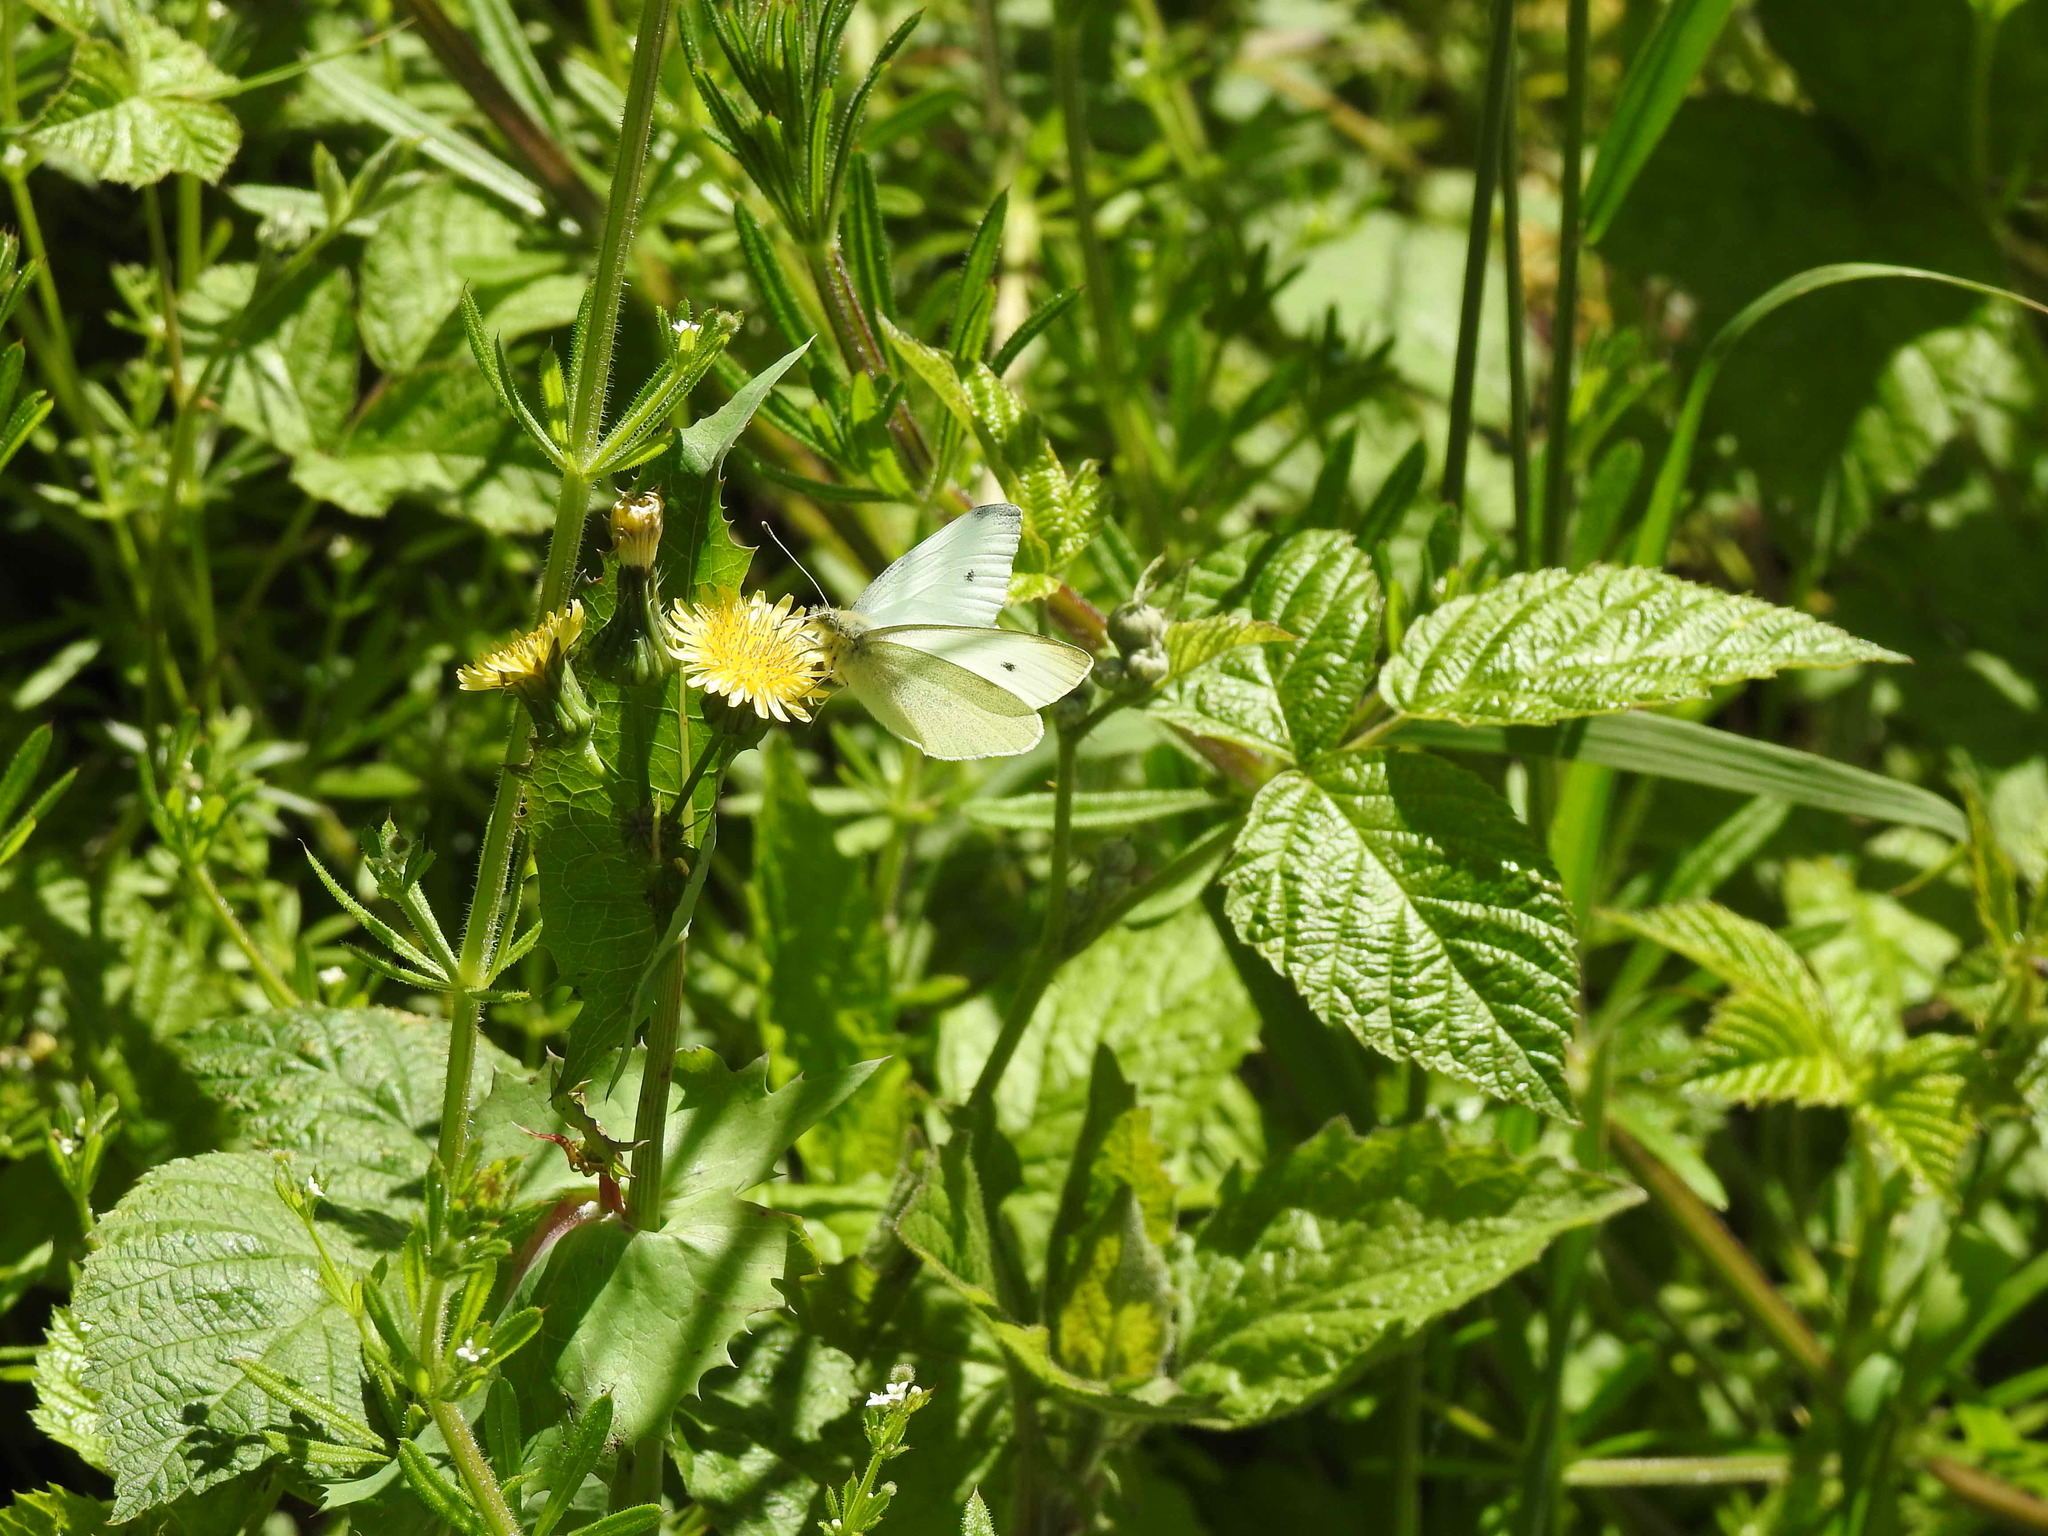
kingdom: Animalia
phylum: Arthropoda
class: Insecta
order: Lepidoptera
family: Pieridae
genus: Pieris
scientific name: Pieris rapae
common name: Small white
